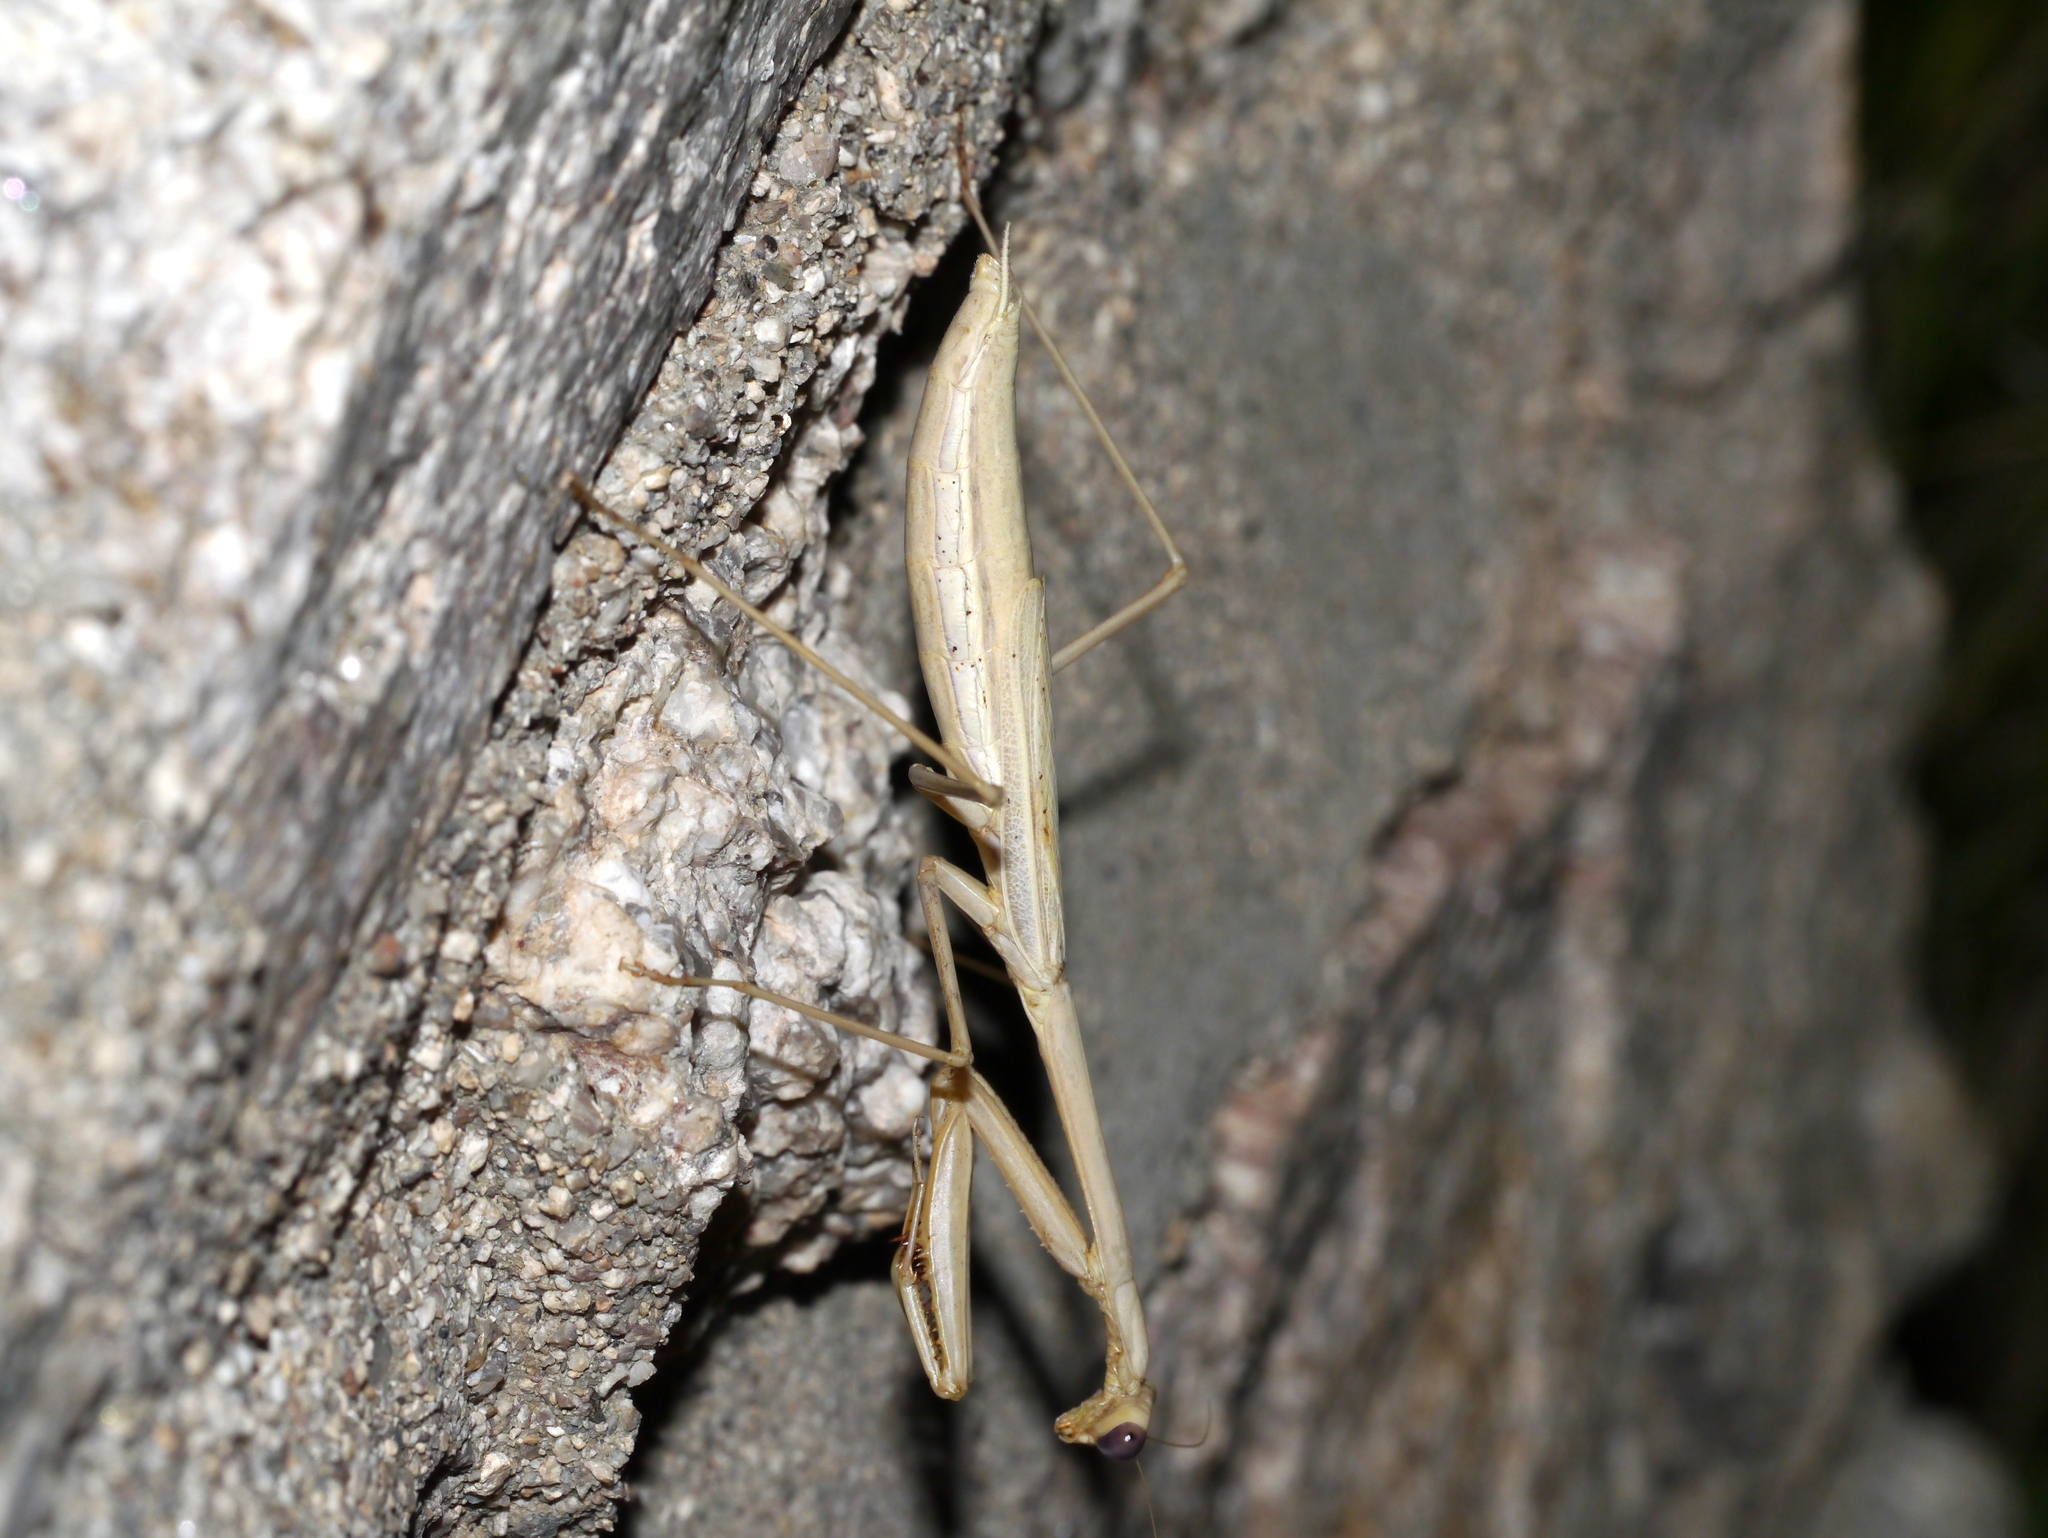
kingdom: Animalia
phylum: Arthropoda
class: Insecta
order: Mantodea
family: Mantidae
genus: Stagmomantis
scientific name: Stagmomantis gracilipes
